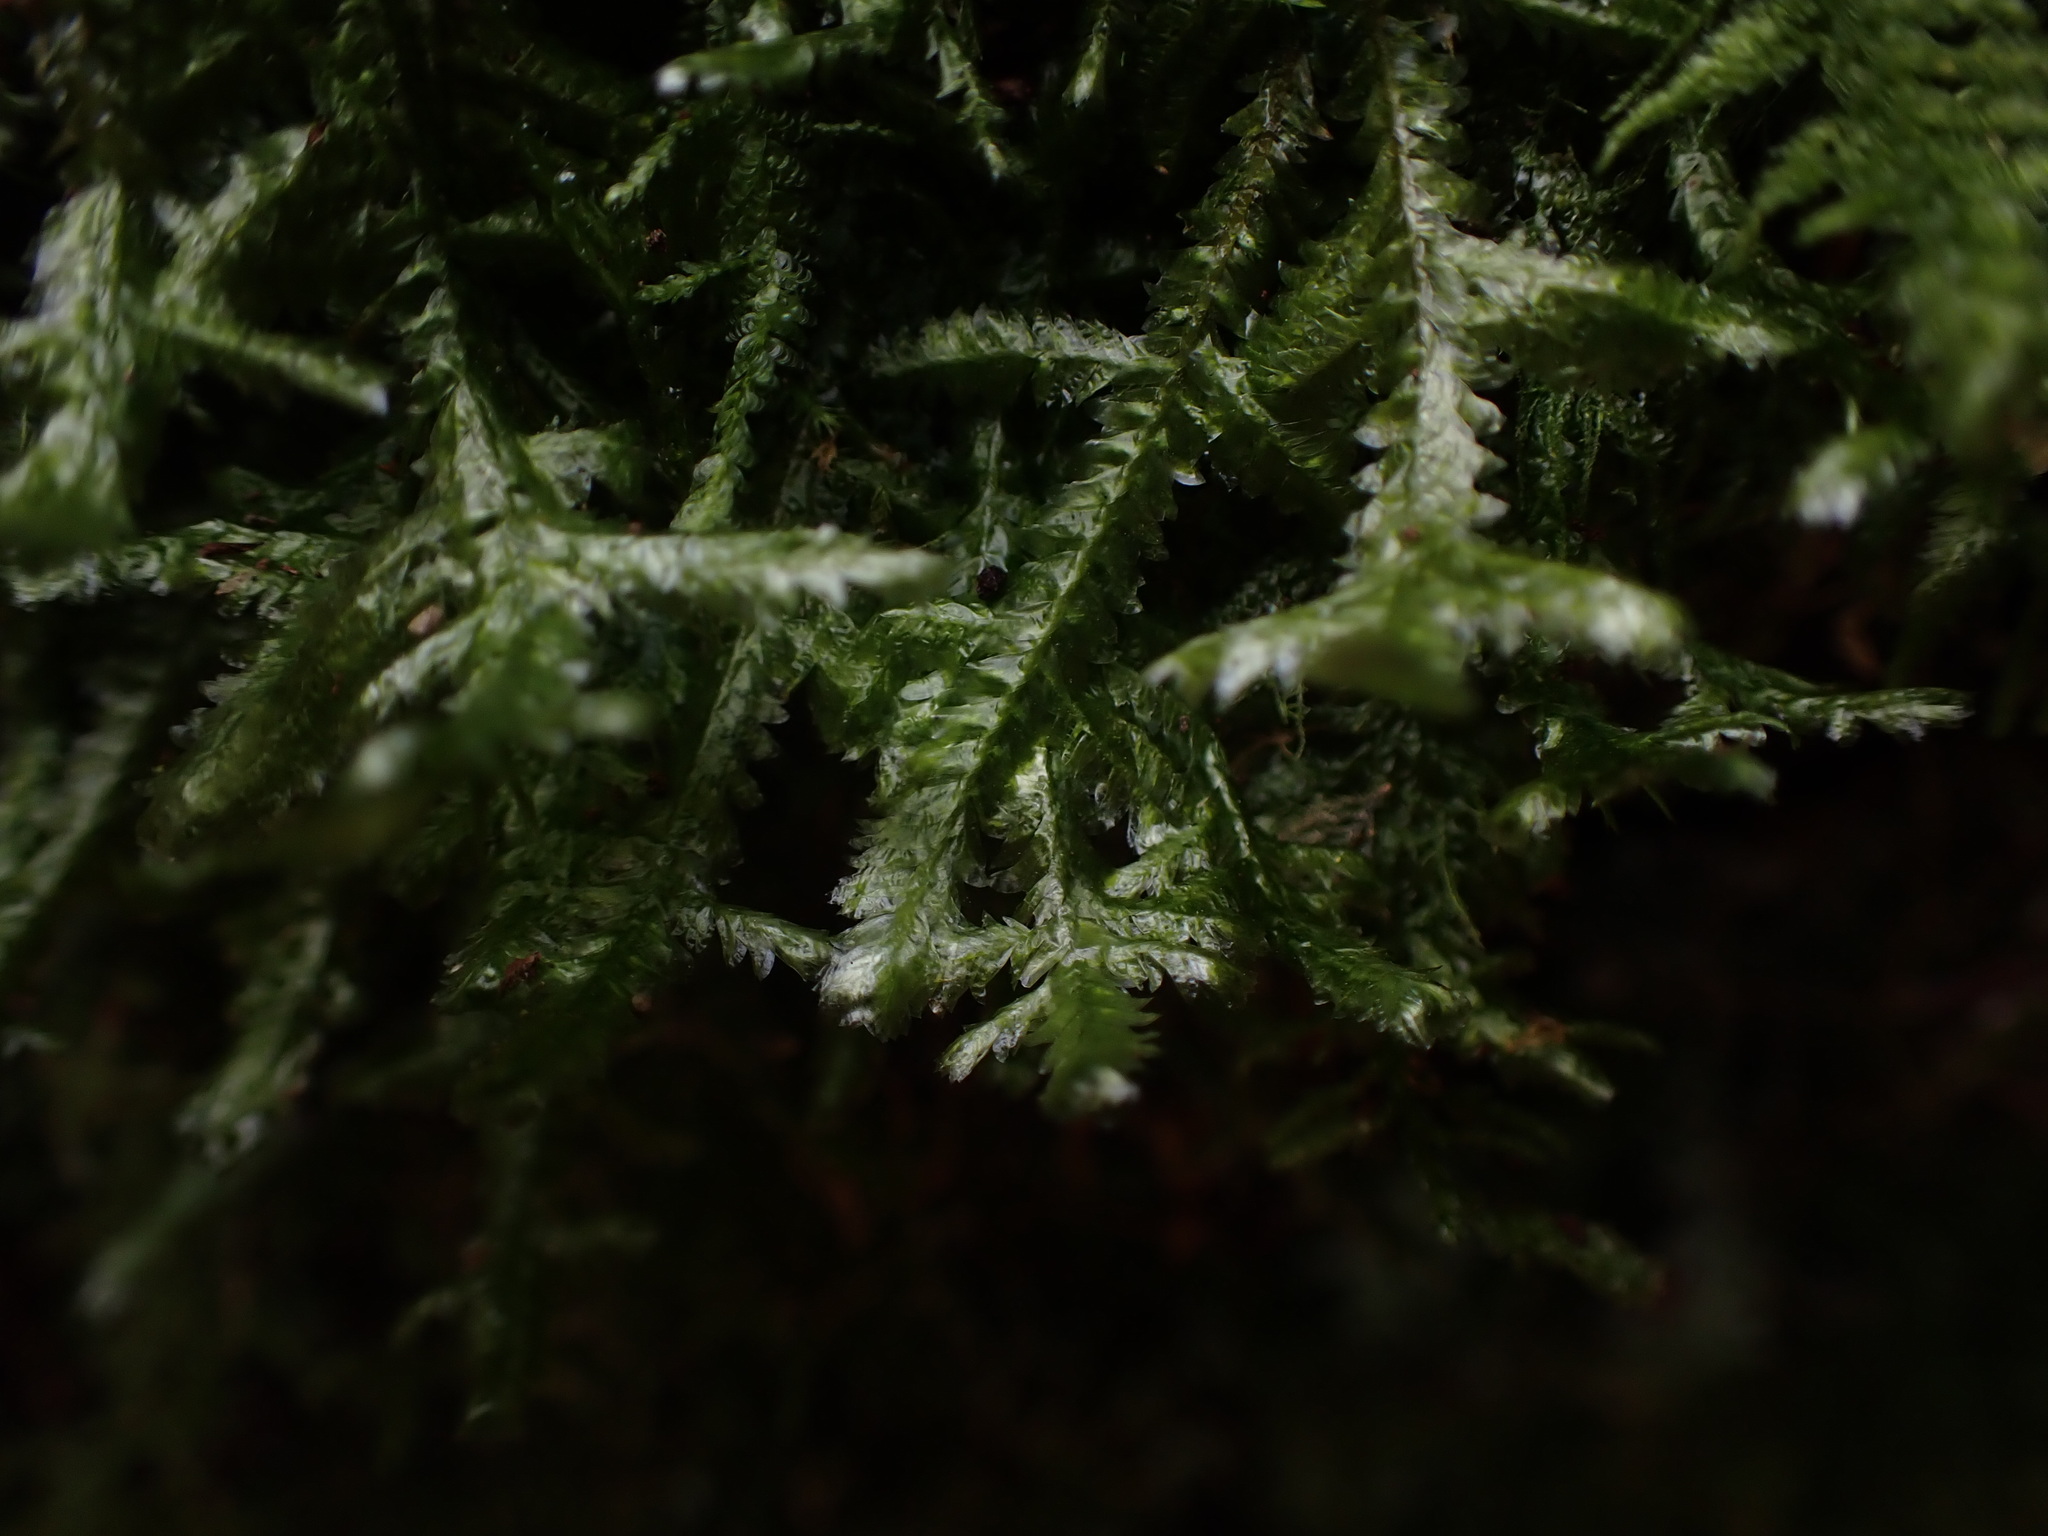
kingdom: Plantae
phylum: Bryophyta
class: Bryopsida
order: Hypnales
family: Neckeraceae
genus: Neckera
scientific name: Neckera pennata
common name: Feathery neckera
